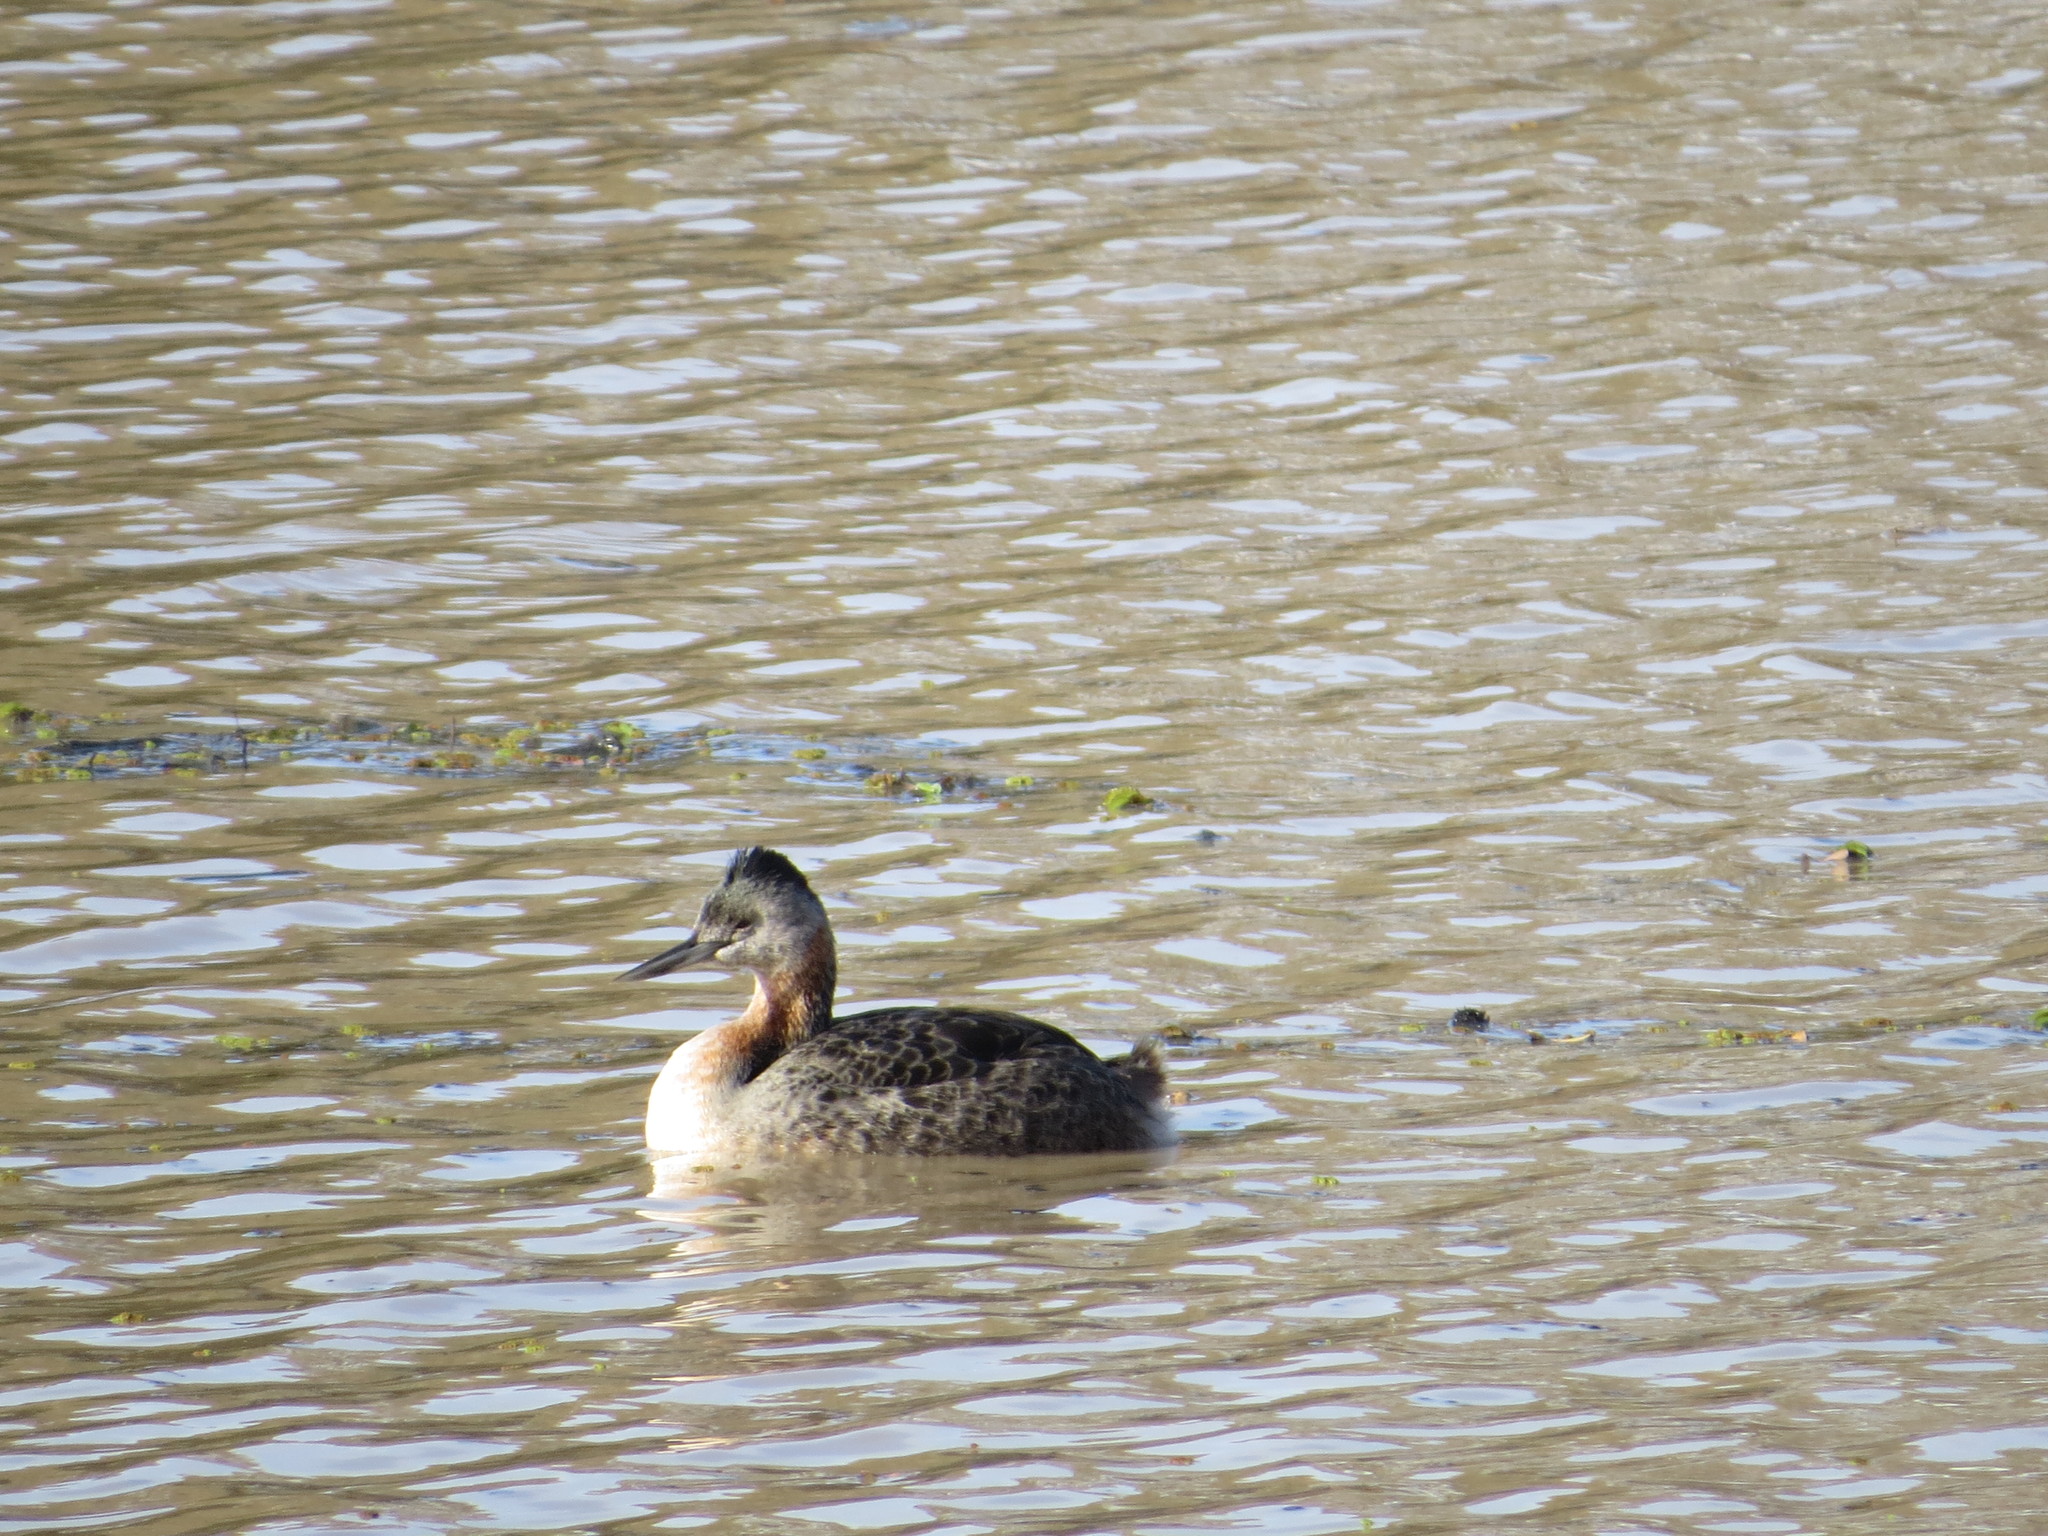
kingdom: Animalia
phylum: Chordata
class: Aves
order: Podicipediformes
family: Podicipedidae
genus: Podiceps
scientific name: Podiceps major
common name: Great grebe
